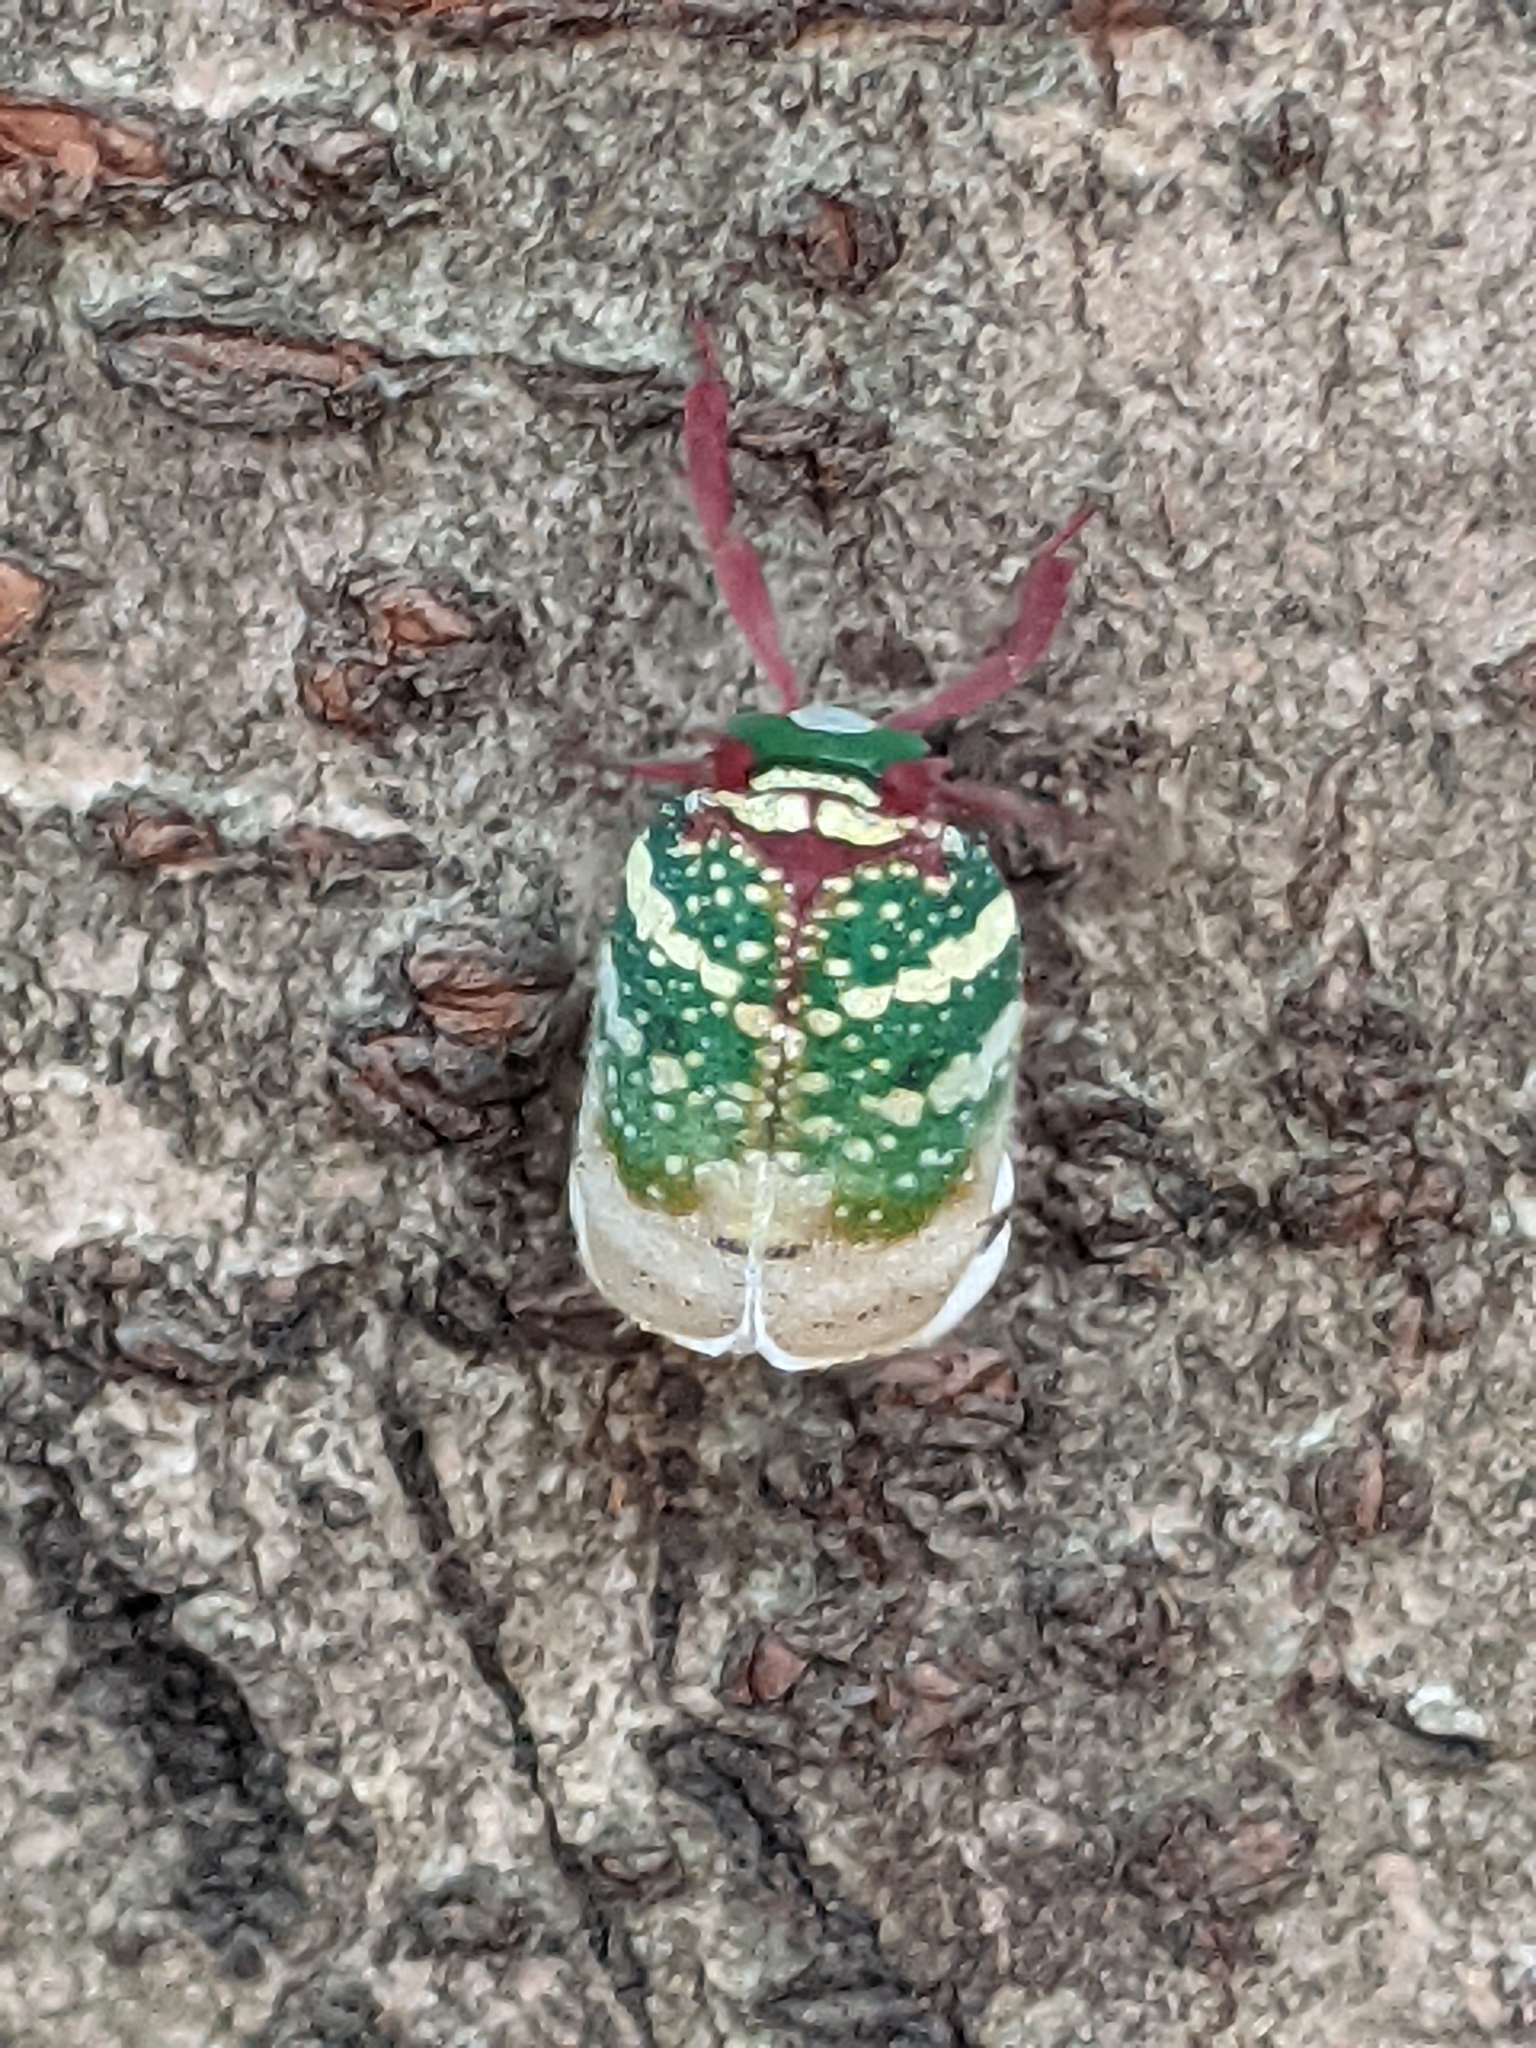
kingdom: Animalia
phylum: Arthropoda
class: Insecta
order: Hemiptera
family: Eurybrachidae
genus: Eurybrachys
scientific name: Eurybrachys tomentosa
